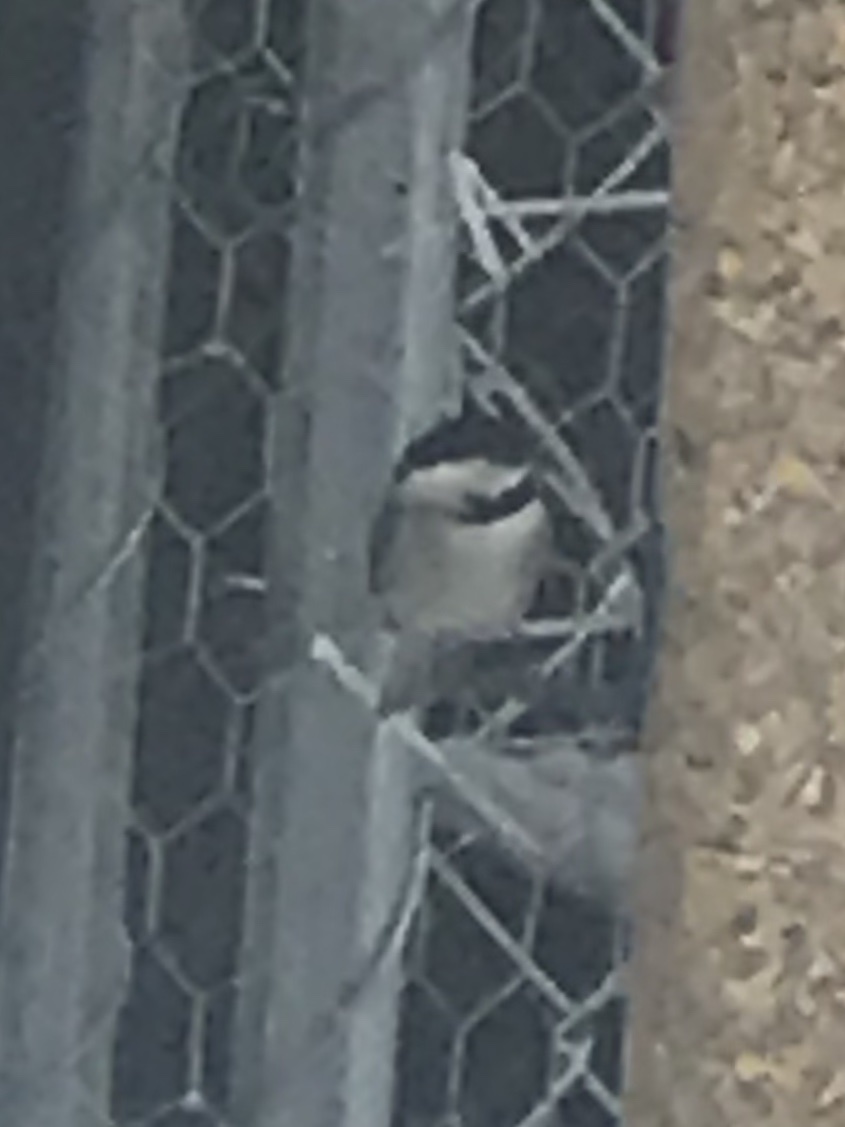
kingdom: Animalia
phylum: Chordata
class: Aves
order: Passeriformes
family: Paridae
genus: Poecile
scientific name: Poecile carolinensis
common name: Carolina chickadee
